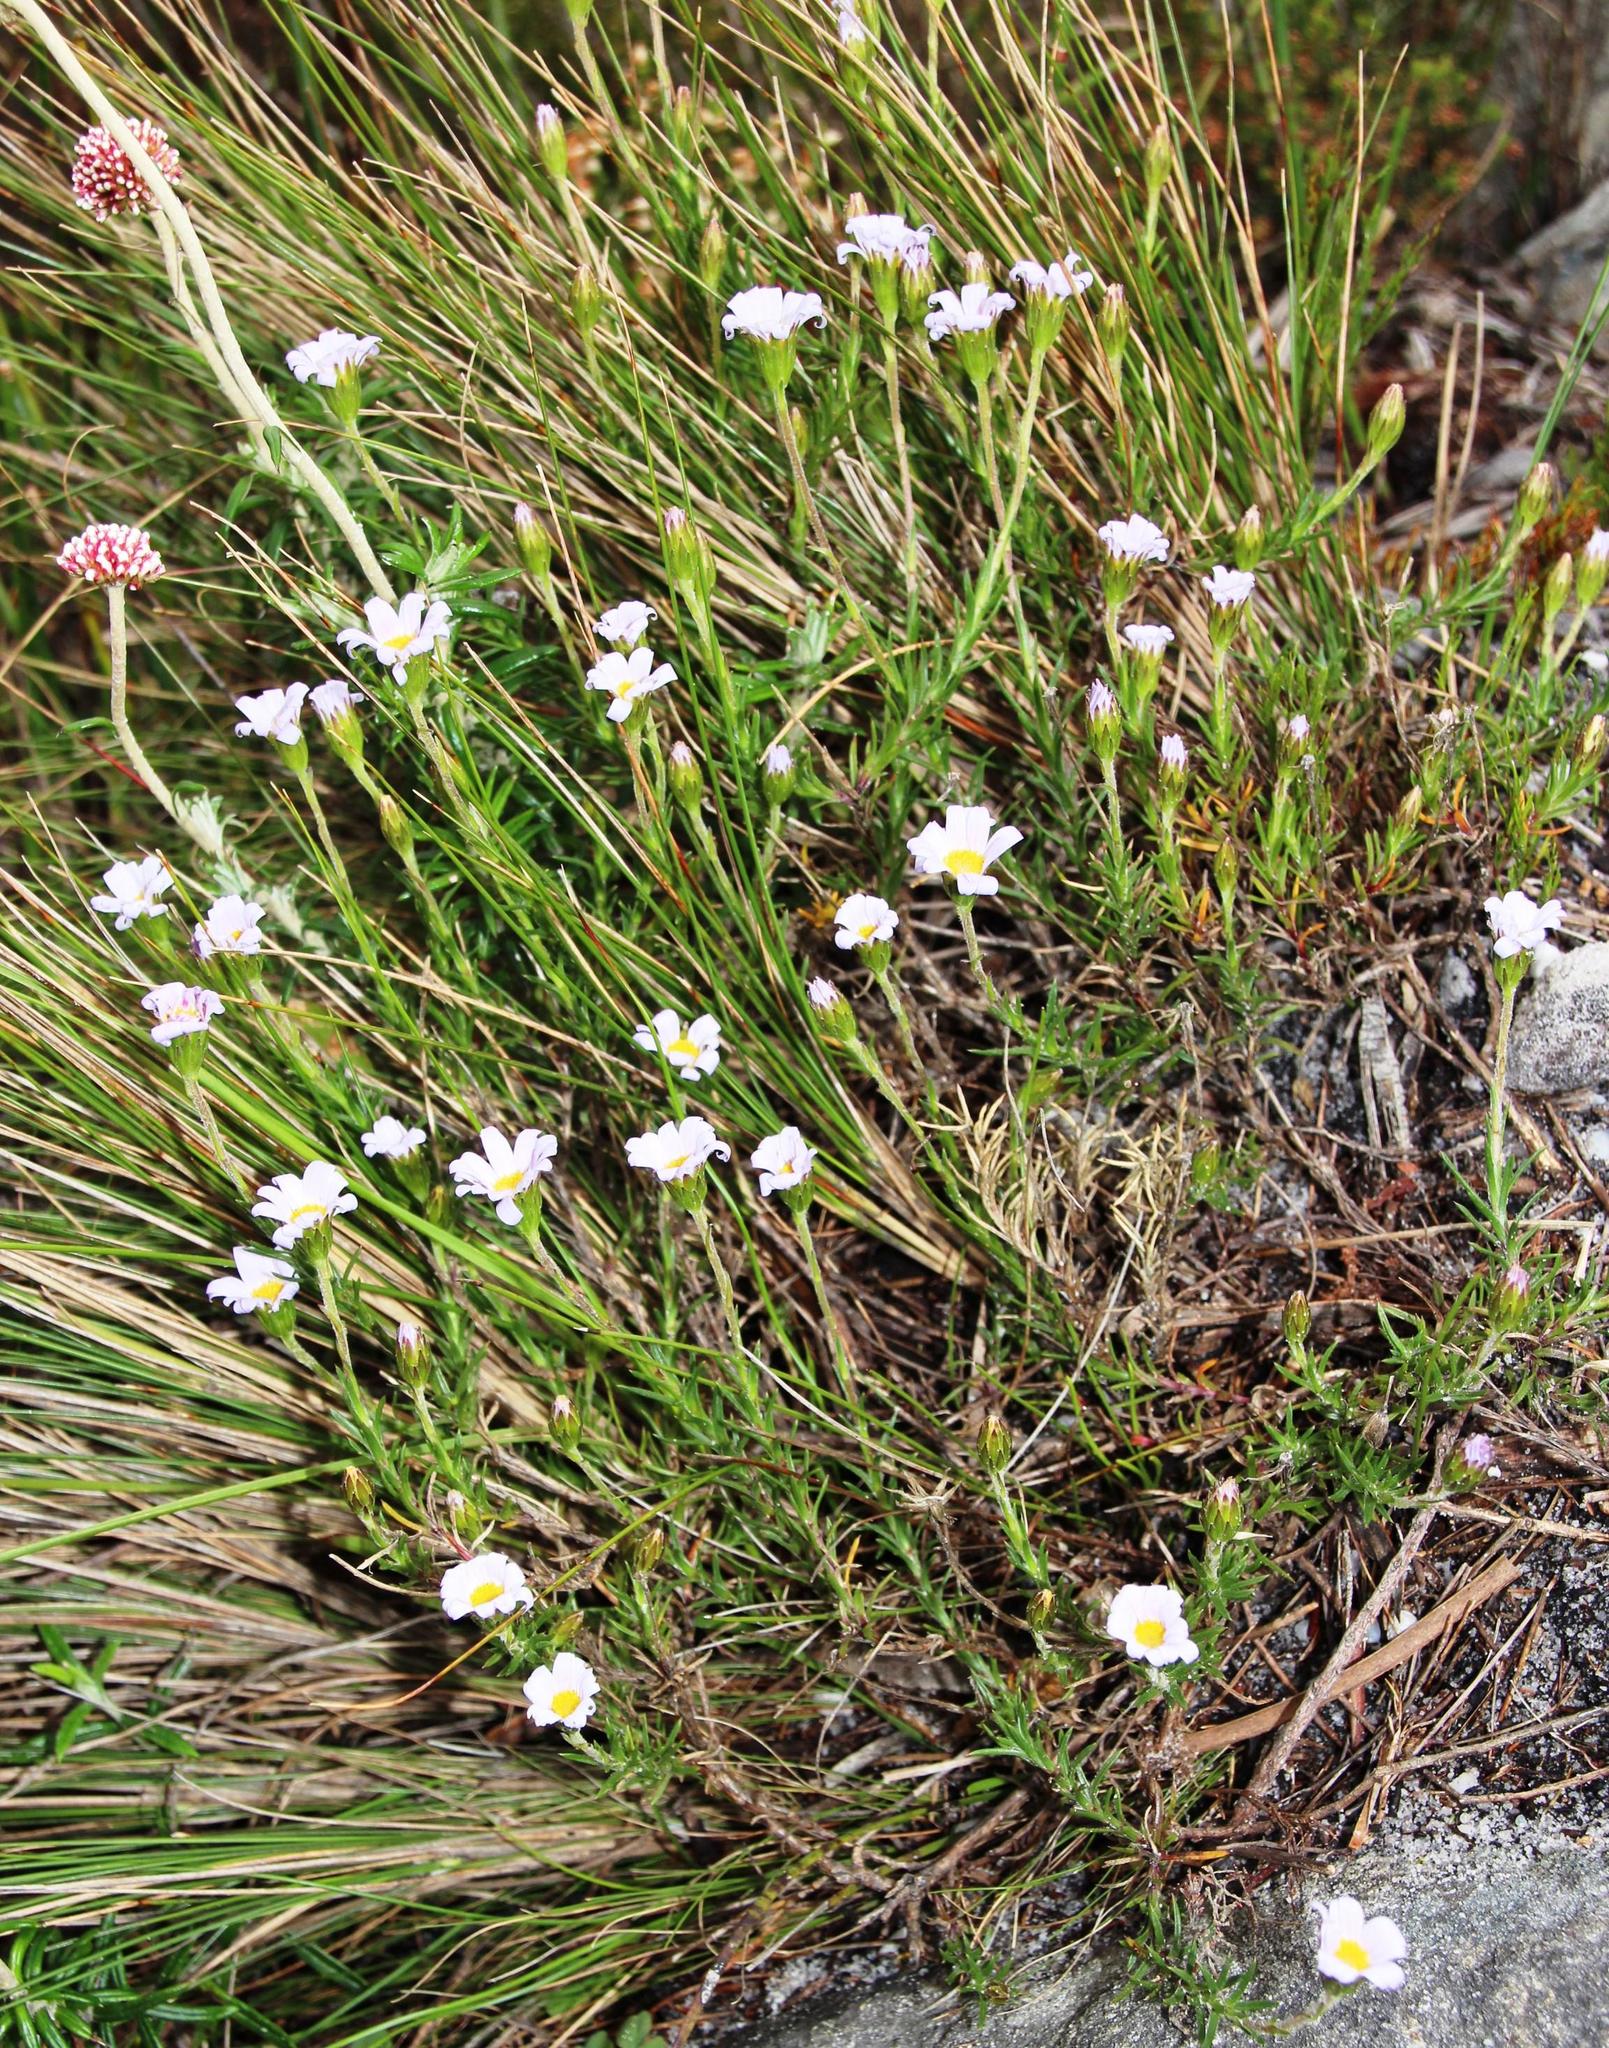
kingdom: Plantae
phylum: Tracheophyta
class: Magnoliopsida
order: Asterales
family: Asteraceae
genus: Zyrphelis
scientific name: Zyrphelis taxifolia
